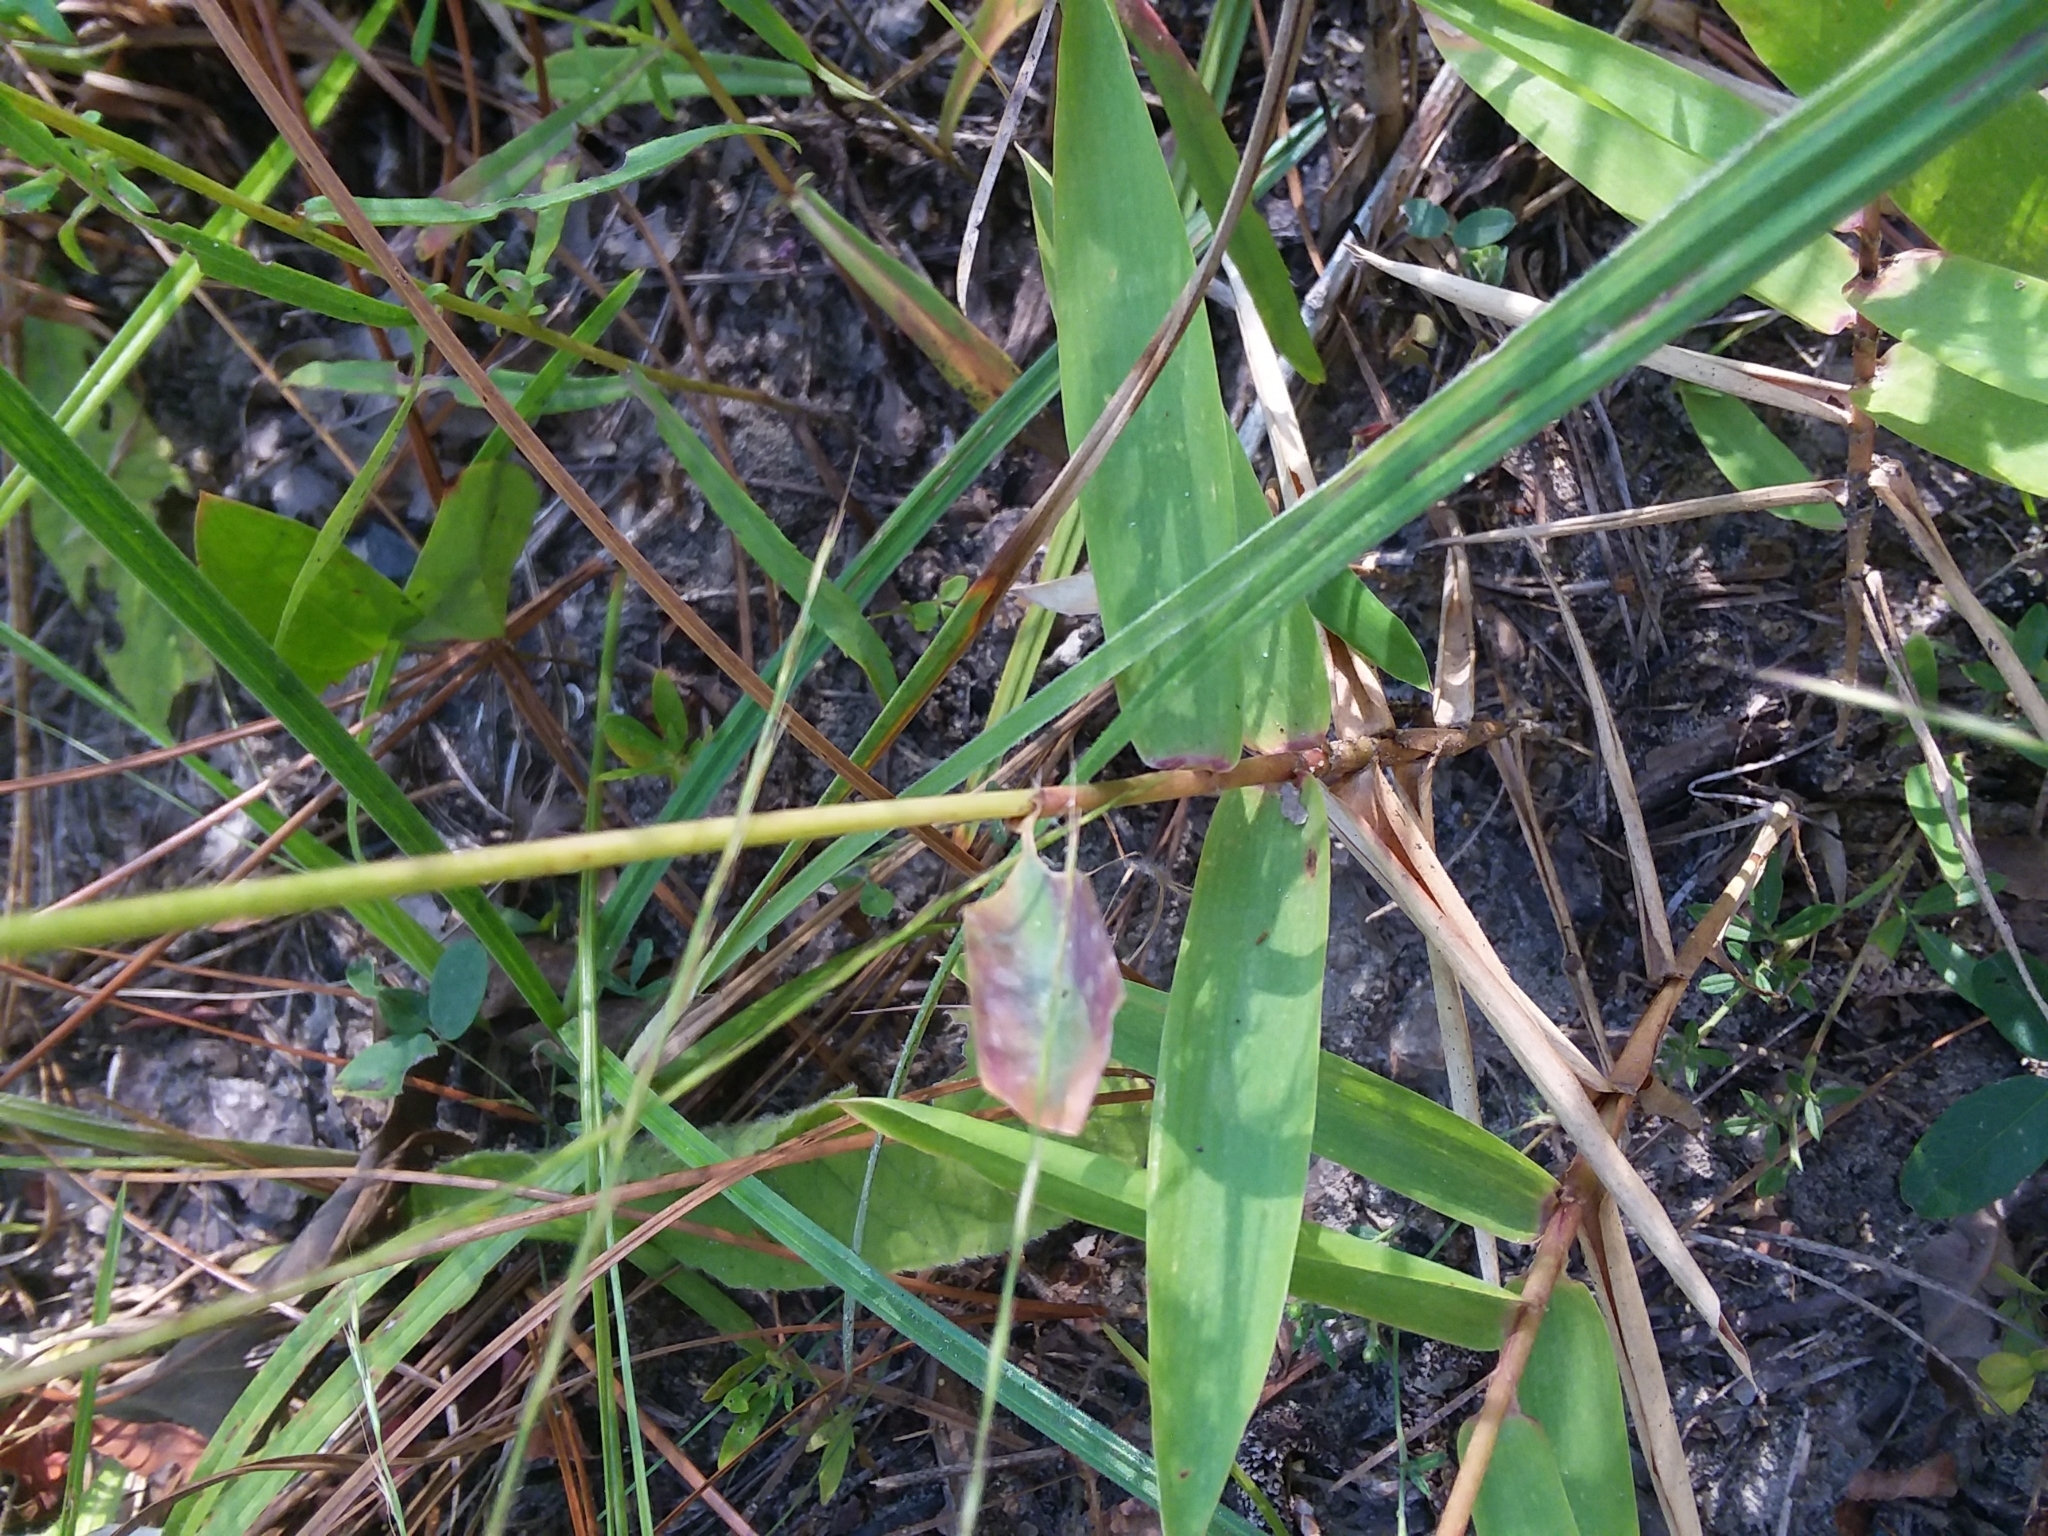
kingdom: Plantae
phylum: Tracheophyta
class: Liliopsida
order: Poales
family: Poaceae
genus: Gymnopogon
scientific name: Gymnopogon ambiguus
